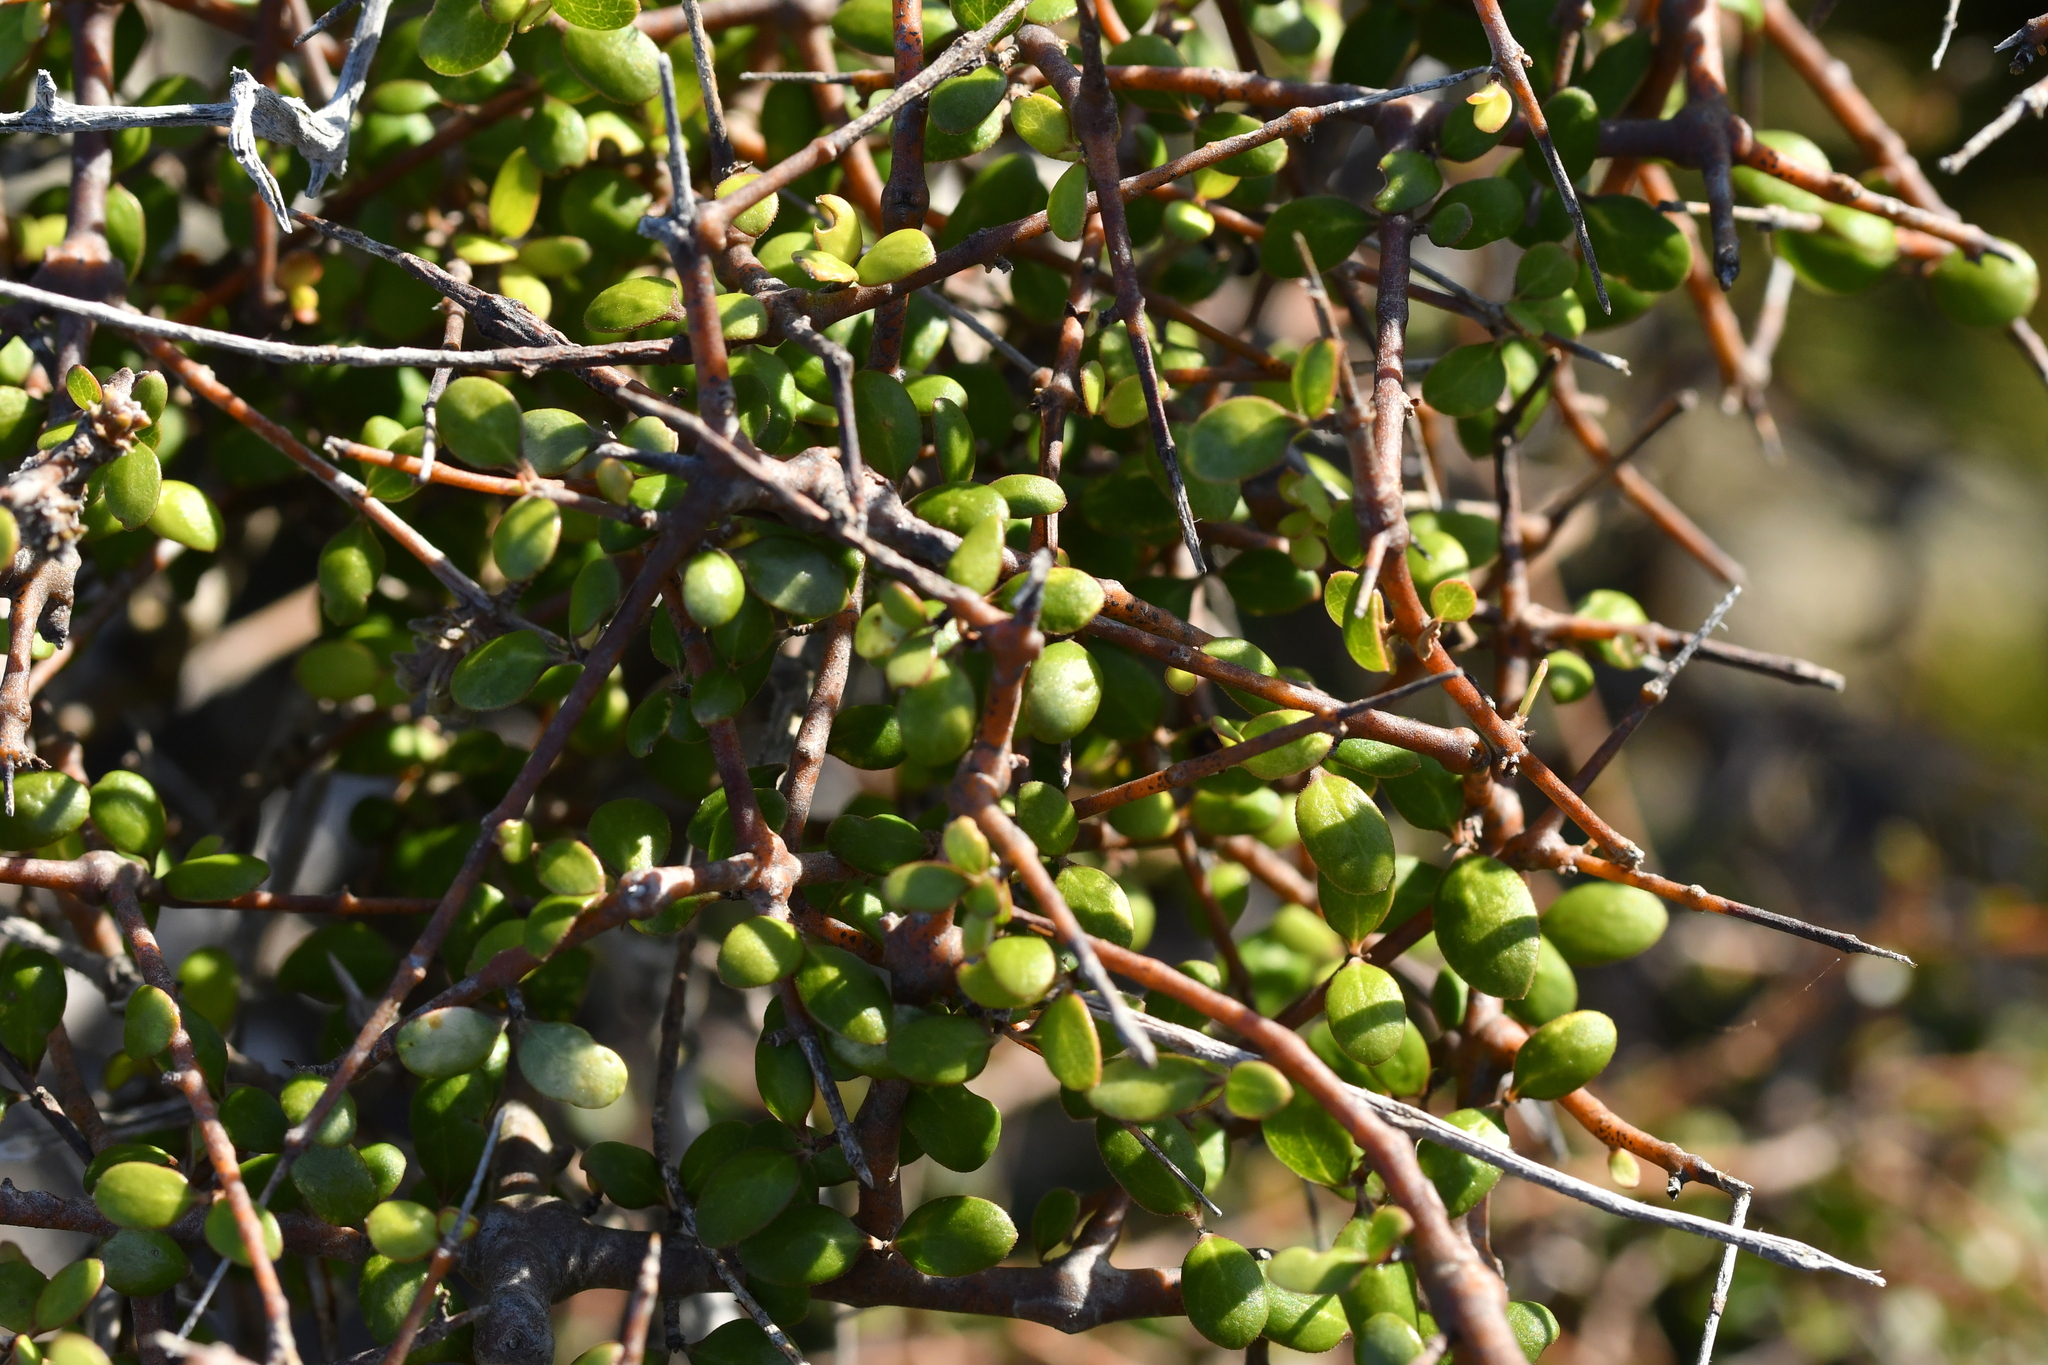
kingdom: Plantae
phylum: Tracheophyta
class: Magnoliopsida
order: Gentianales
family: Rubiaceae
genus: Coprosma
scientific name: Coprosma crassifolia
